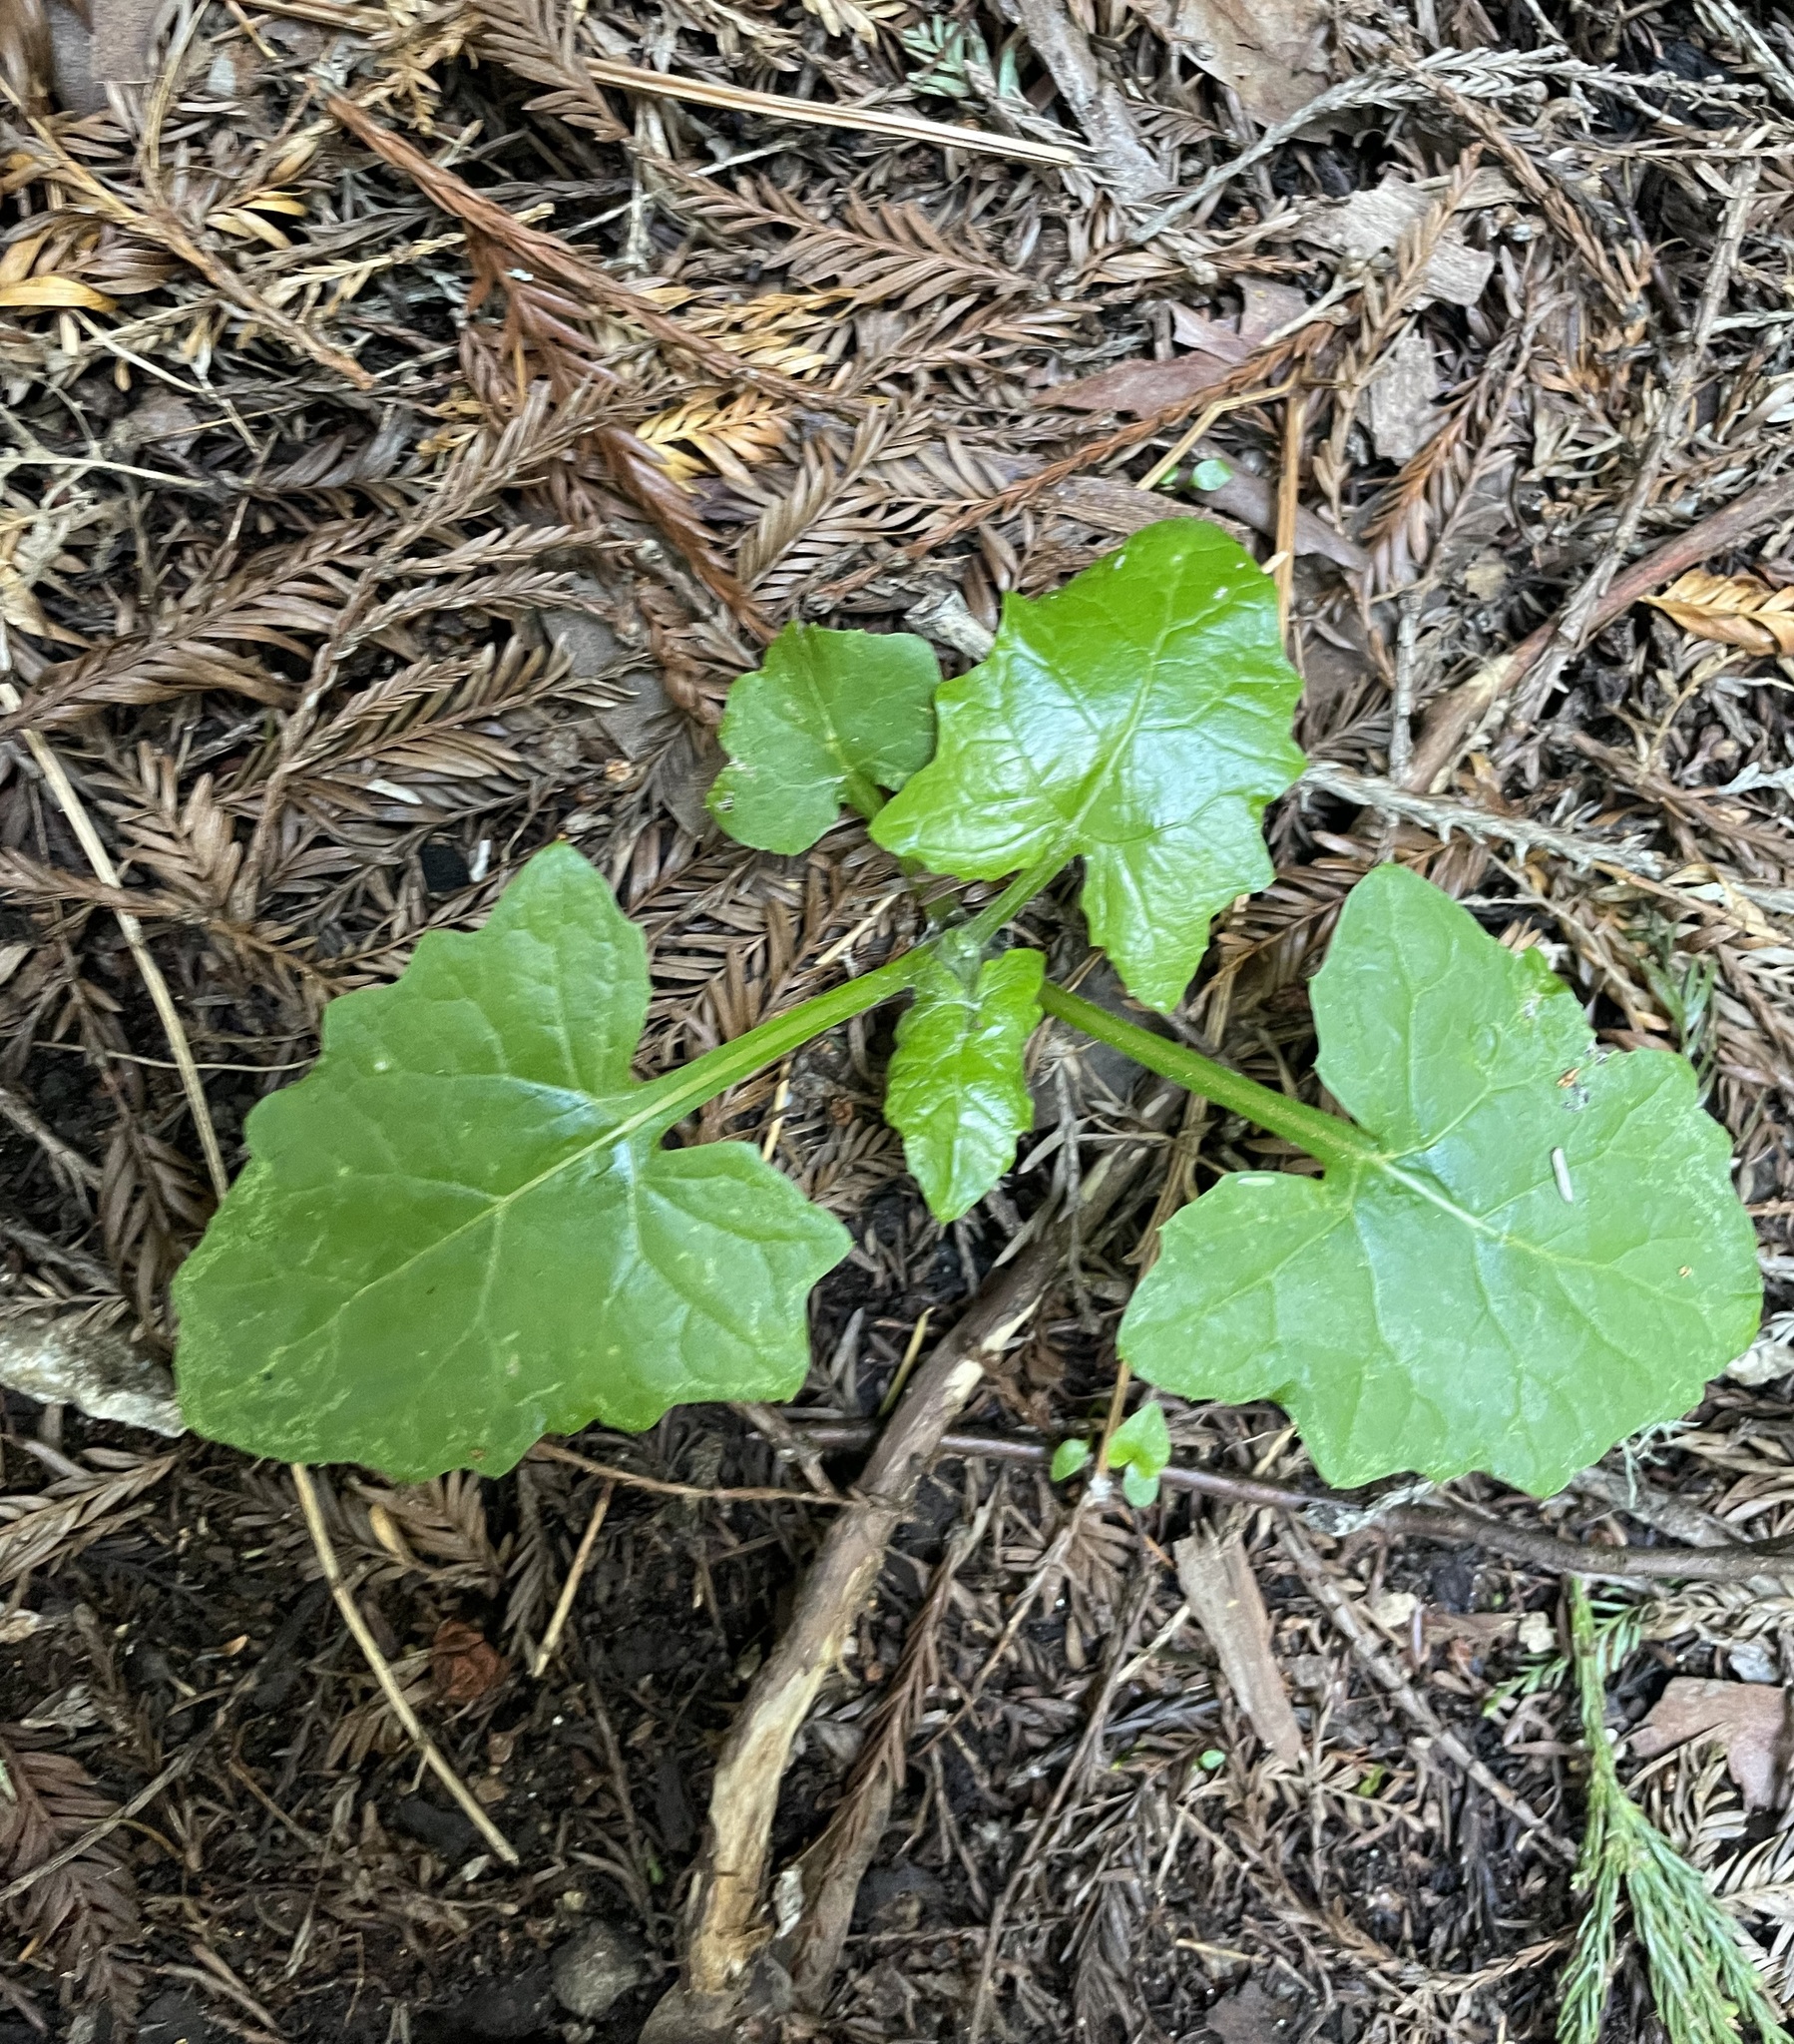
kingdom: Plantae
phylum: Tracheophyta
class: Magnoliopsida
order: Asterales
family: Asteraceae
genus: Adenocaulon
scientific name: Adenocaulon bicolor
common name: Trailplant
